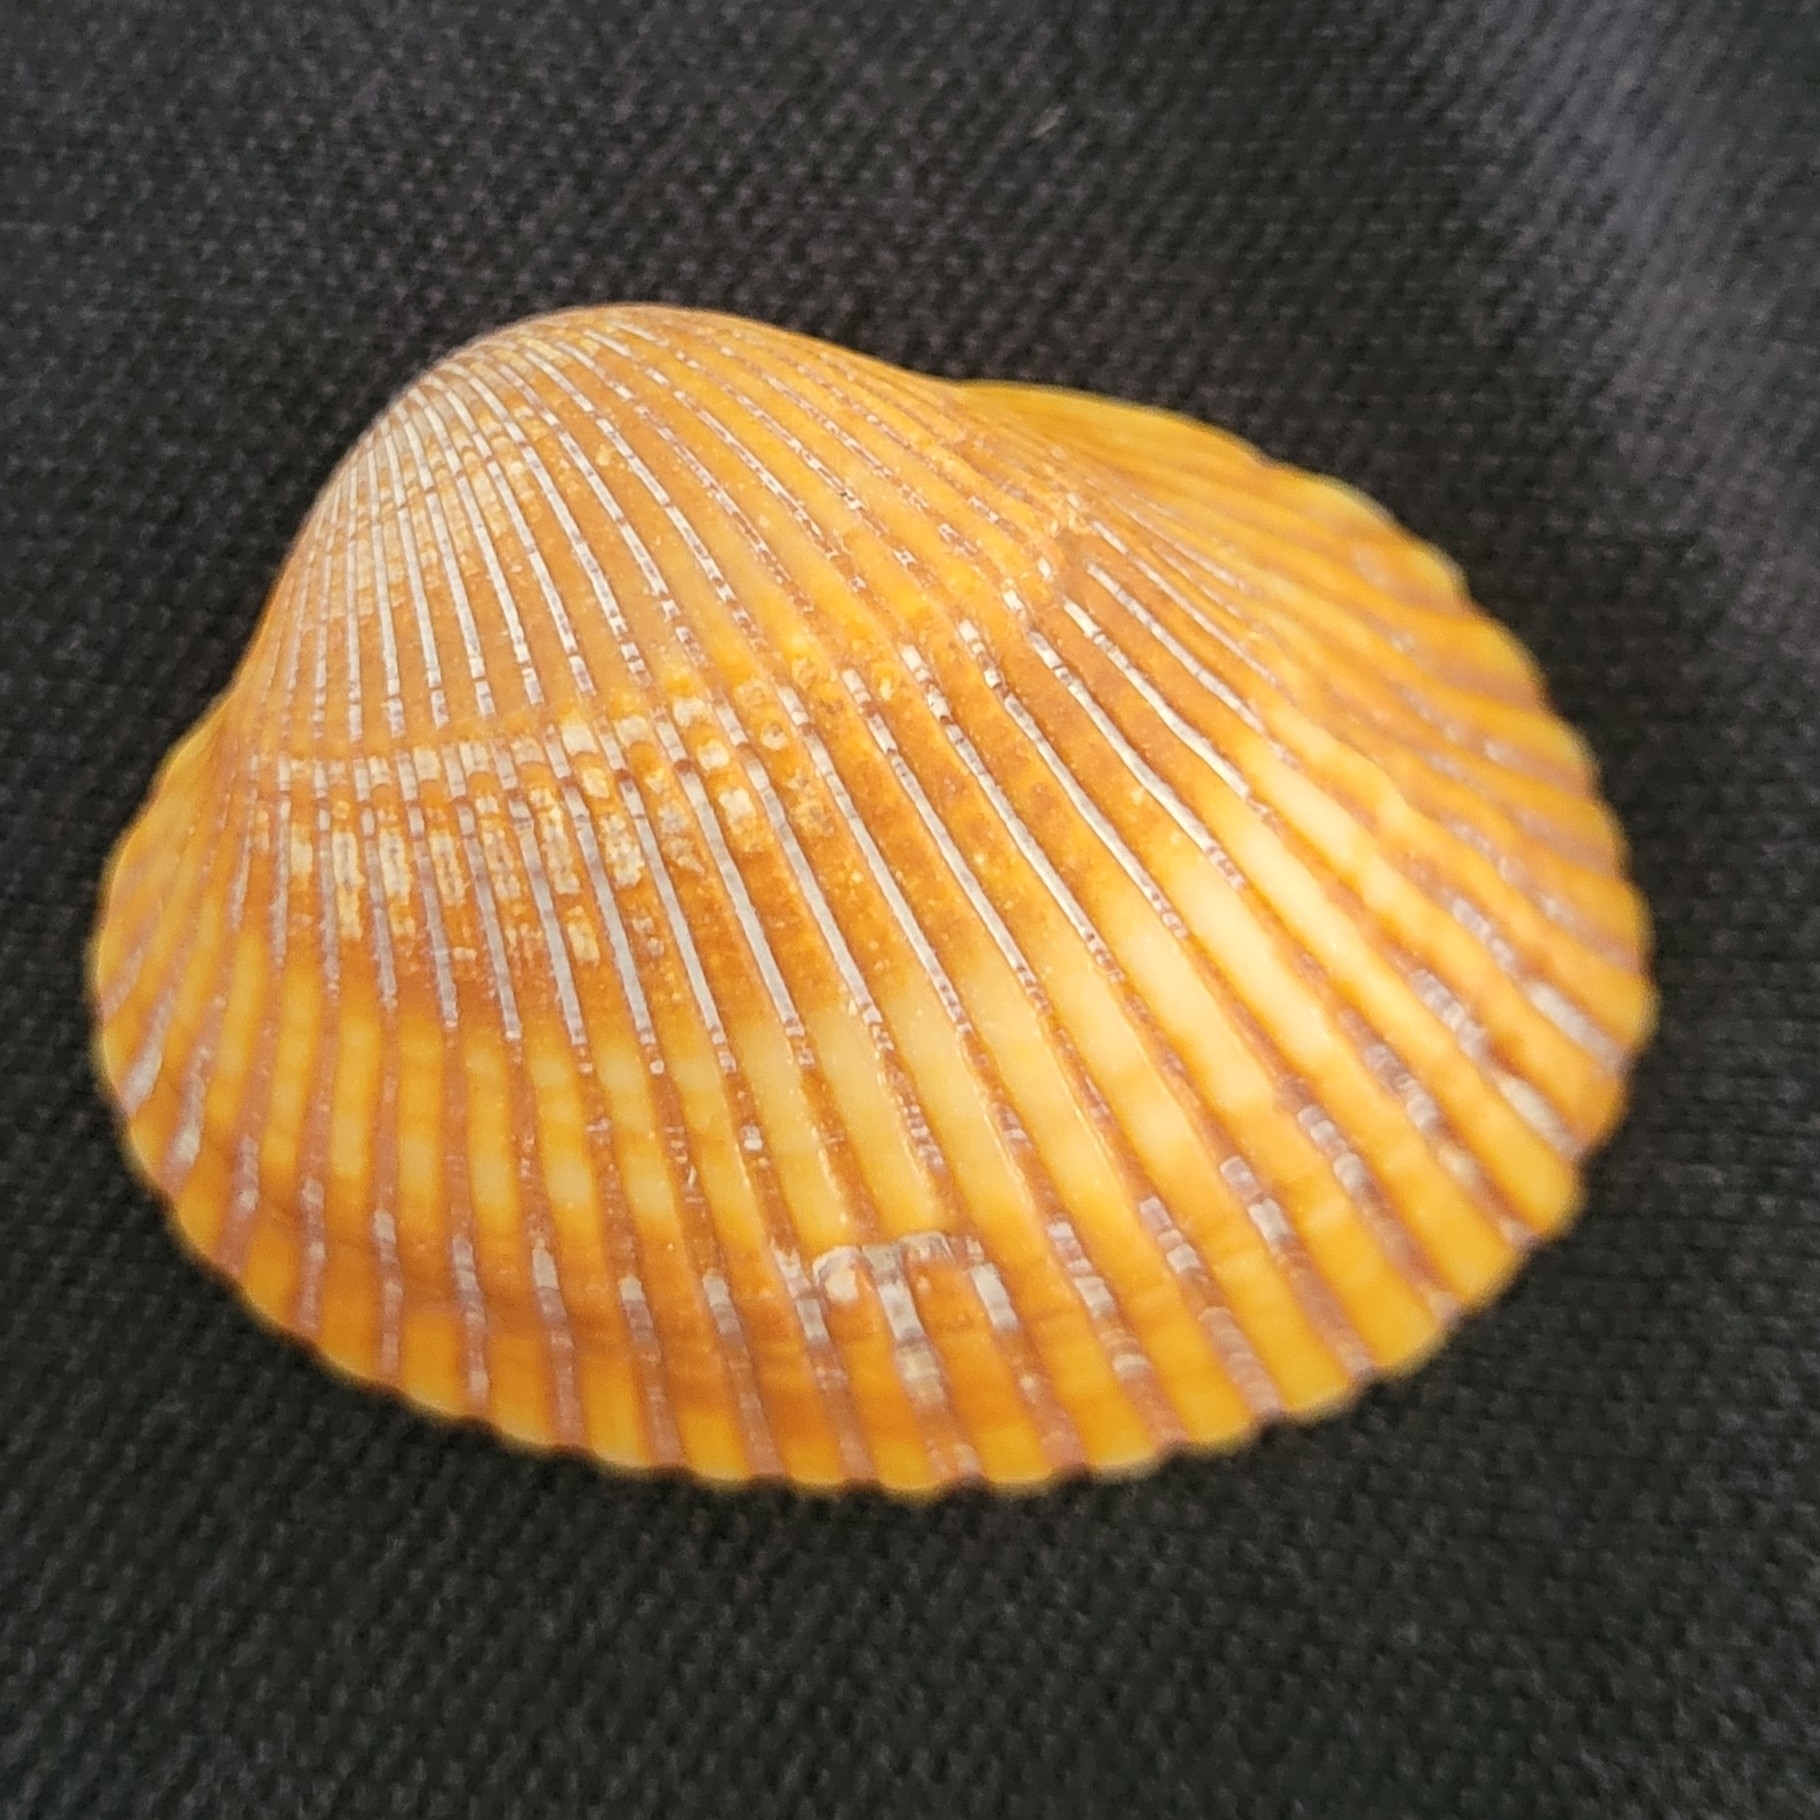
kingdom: Animalia
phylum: Mollusca
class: Bivalvia
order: Arcida
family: Arcidae
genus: Lunarca
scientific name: Lunarca ovalis
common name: Blood ark
